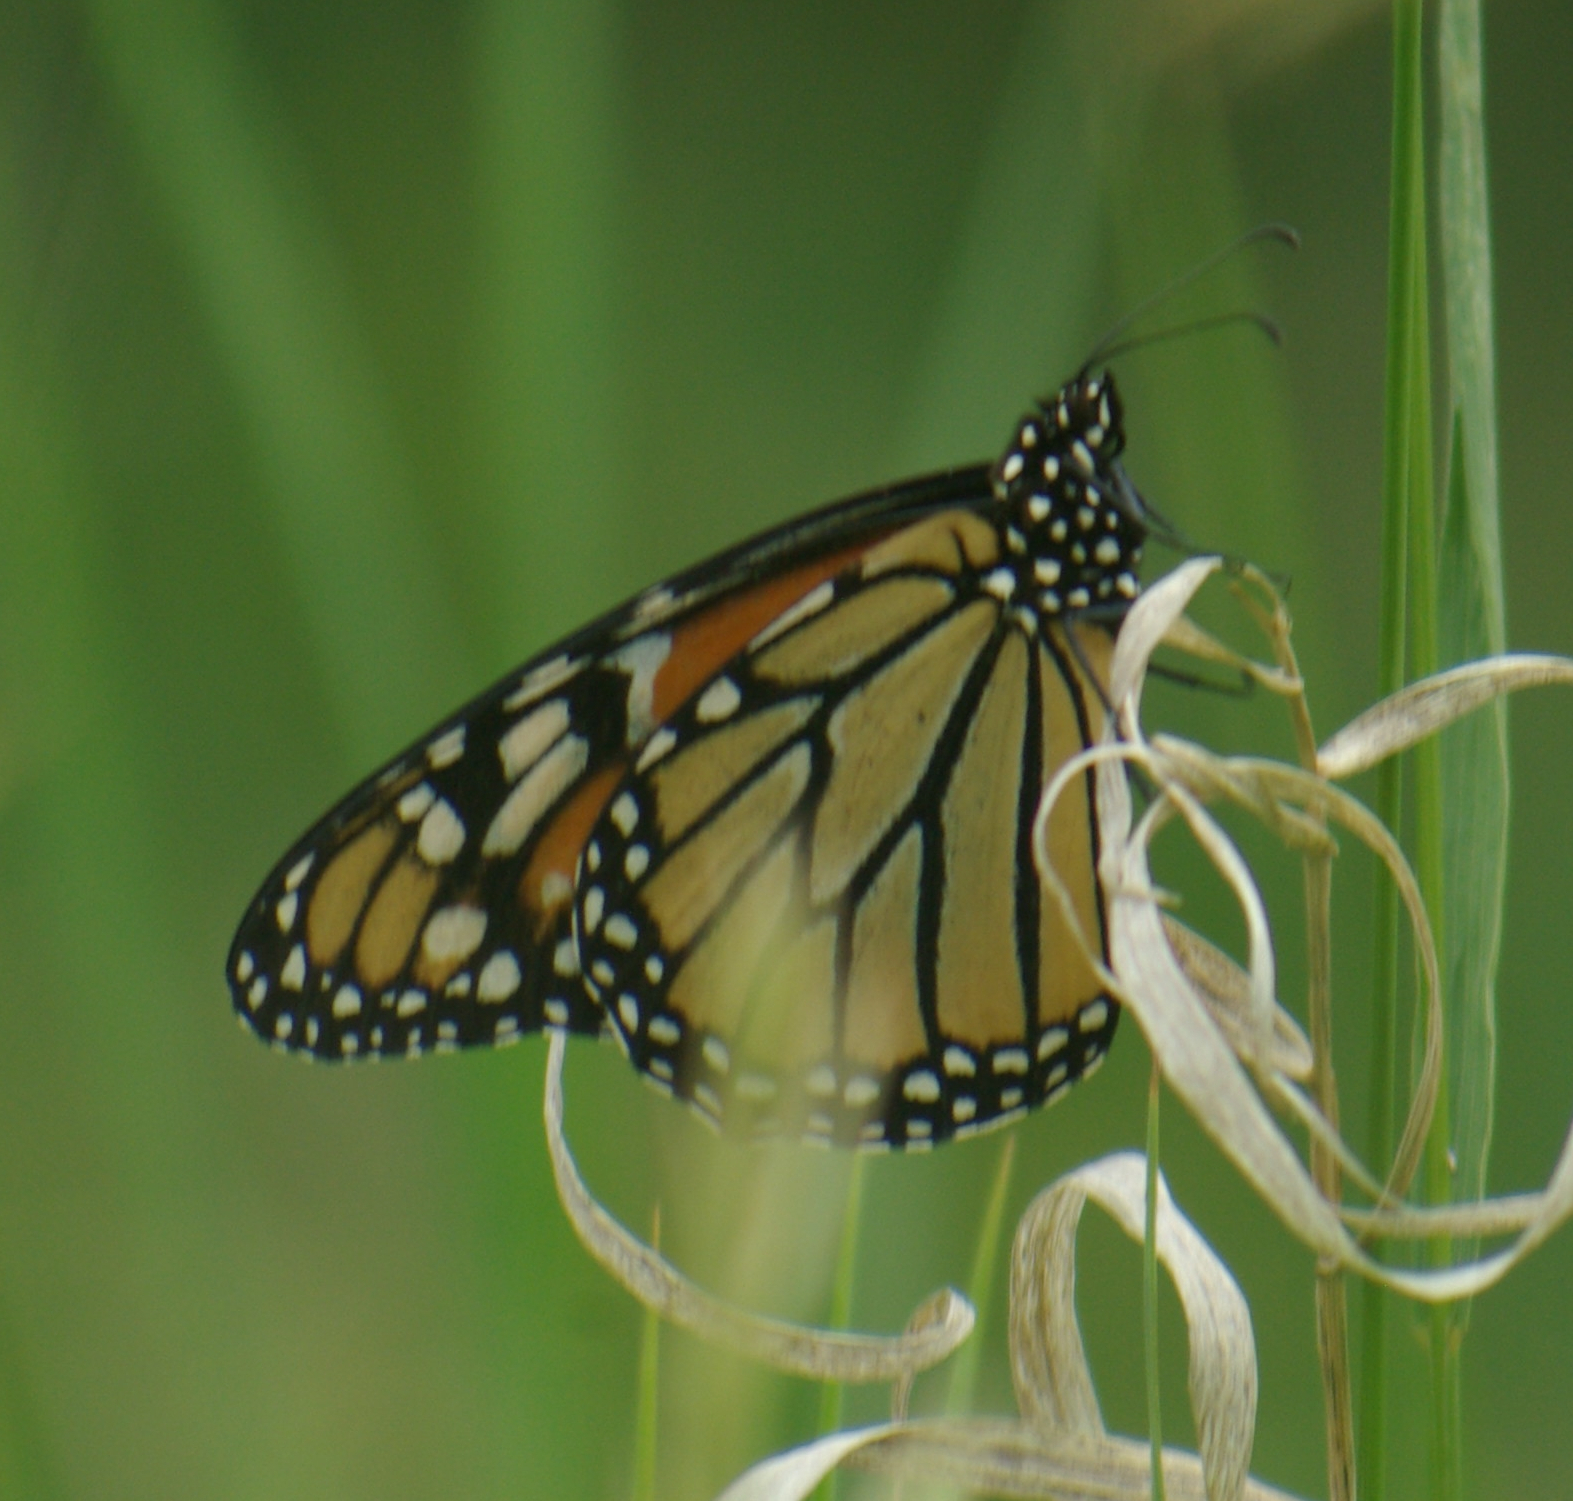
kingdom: Animalia
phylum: Arthropoda
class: Insecta
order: Lepidoptera
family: Nymphalidae
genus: Danaus
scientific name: Danaus plexippus
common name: Monarch
